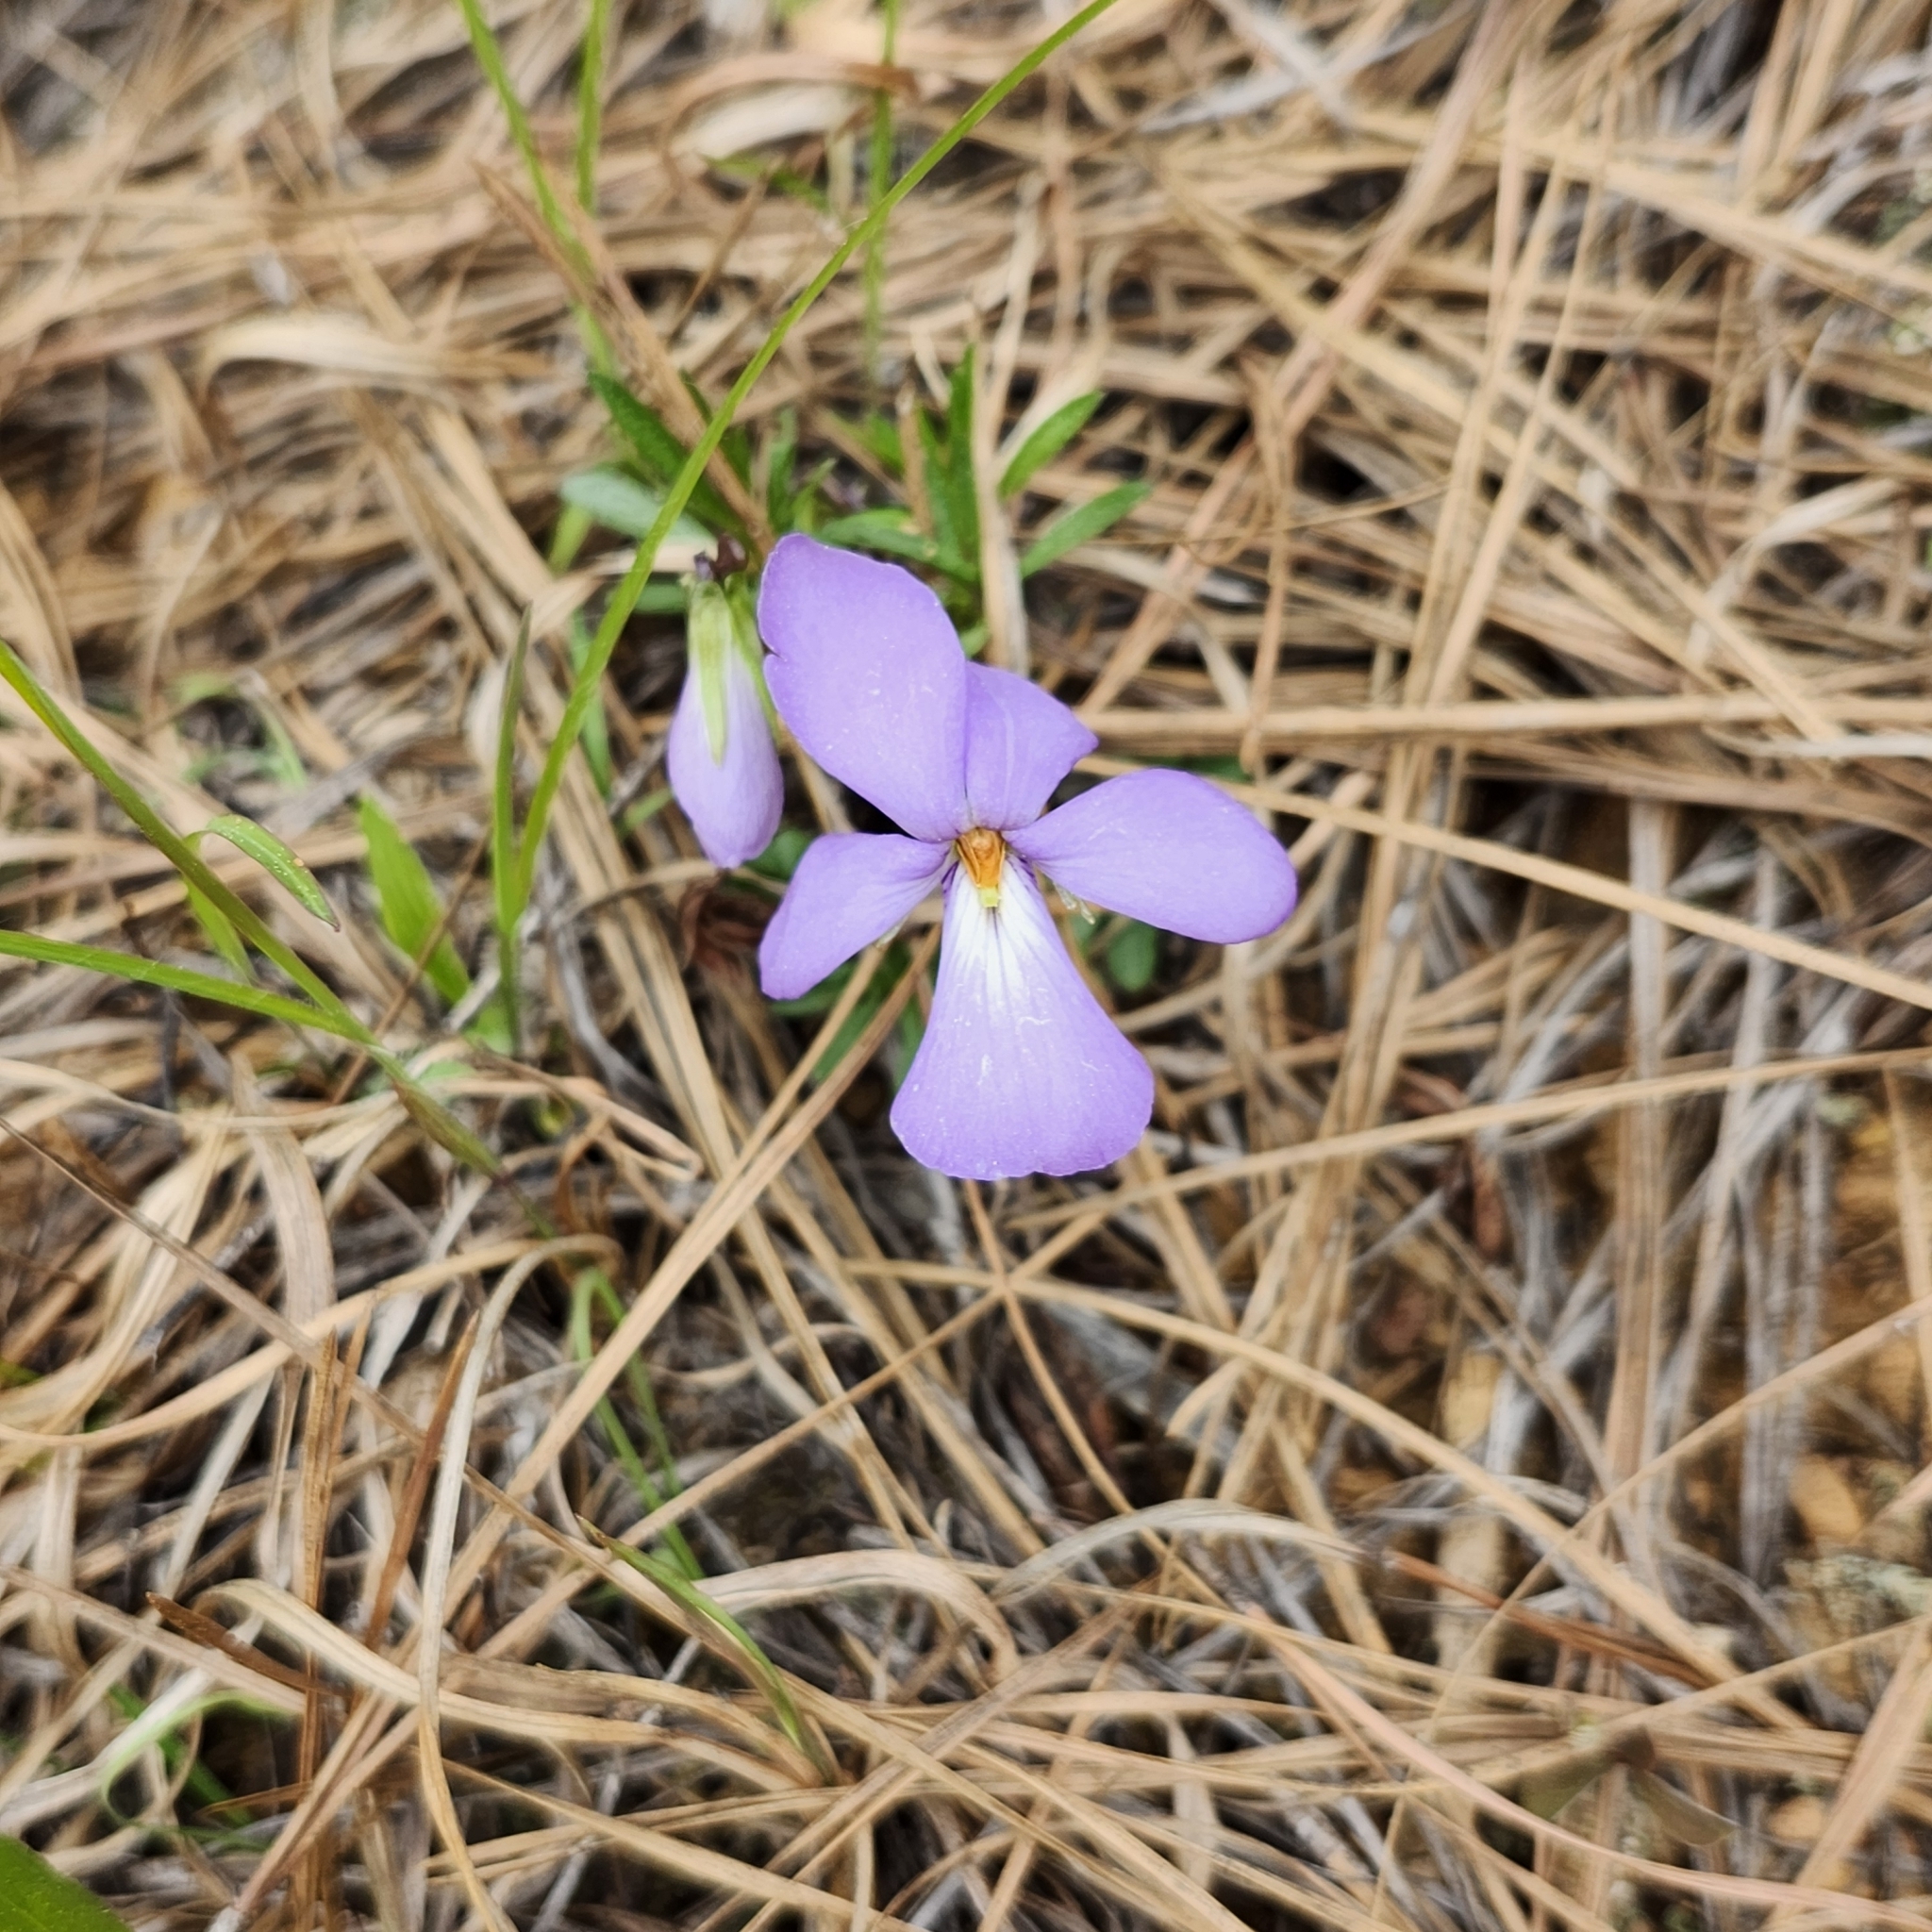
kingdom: Plantae
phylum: Tracheophyta
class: Magnoliopsida
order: Malpighiales
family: Violaceae
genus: Viola
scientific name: Viola pedata
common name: Pansy violet
